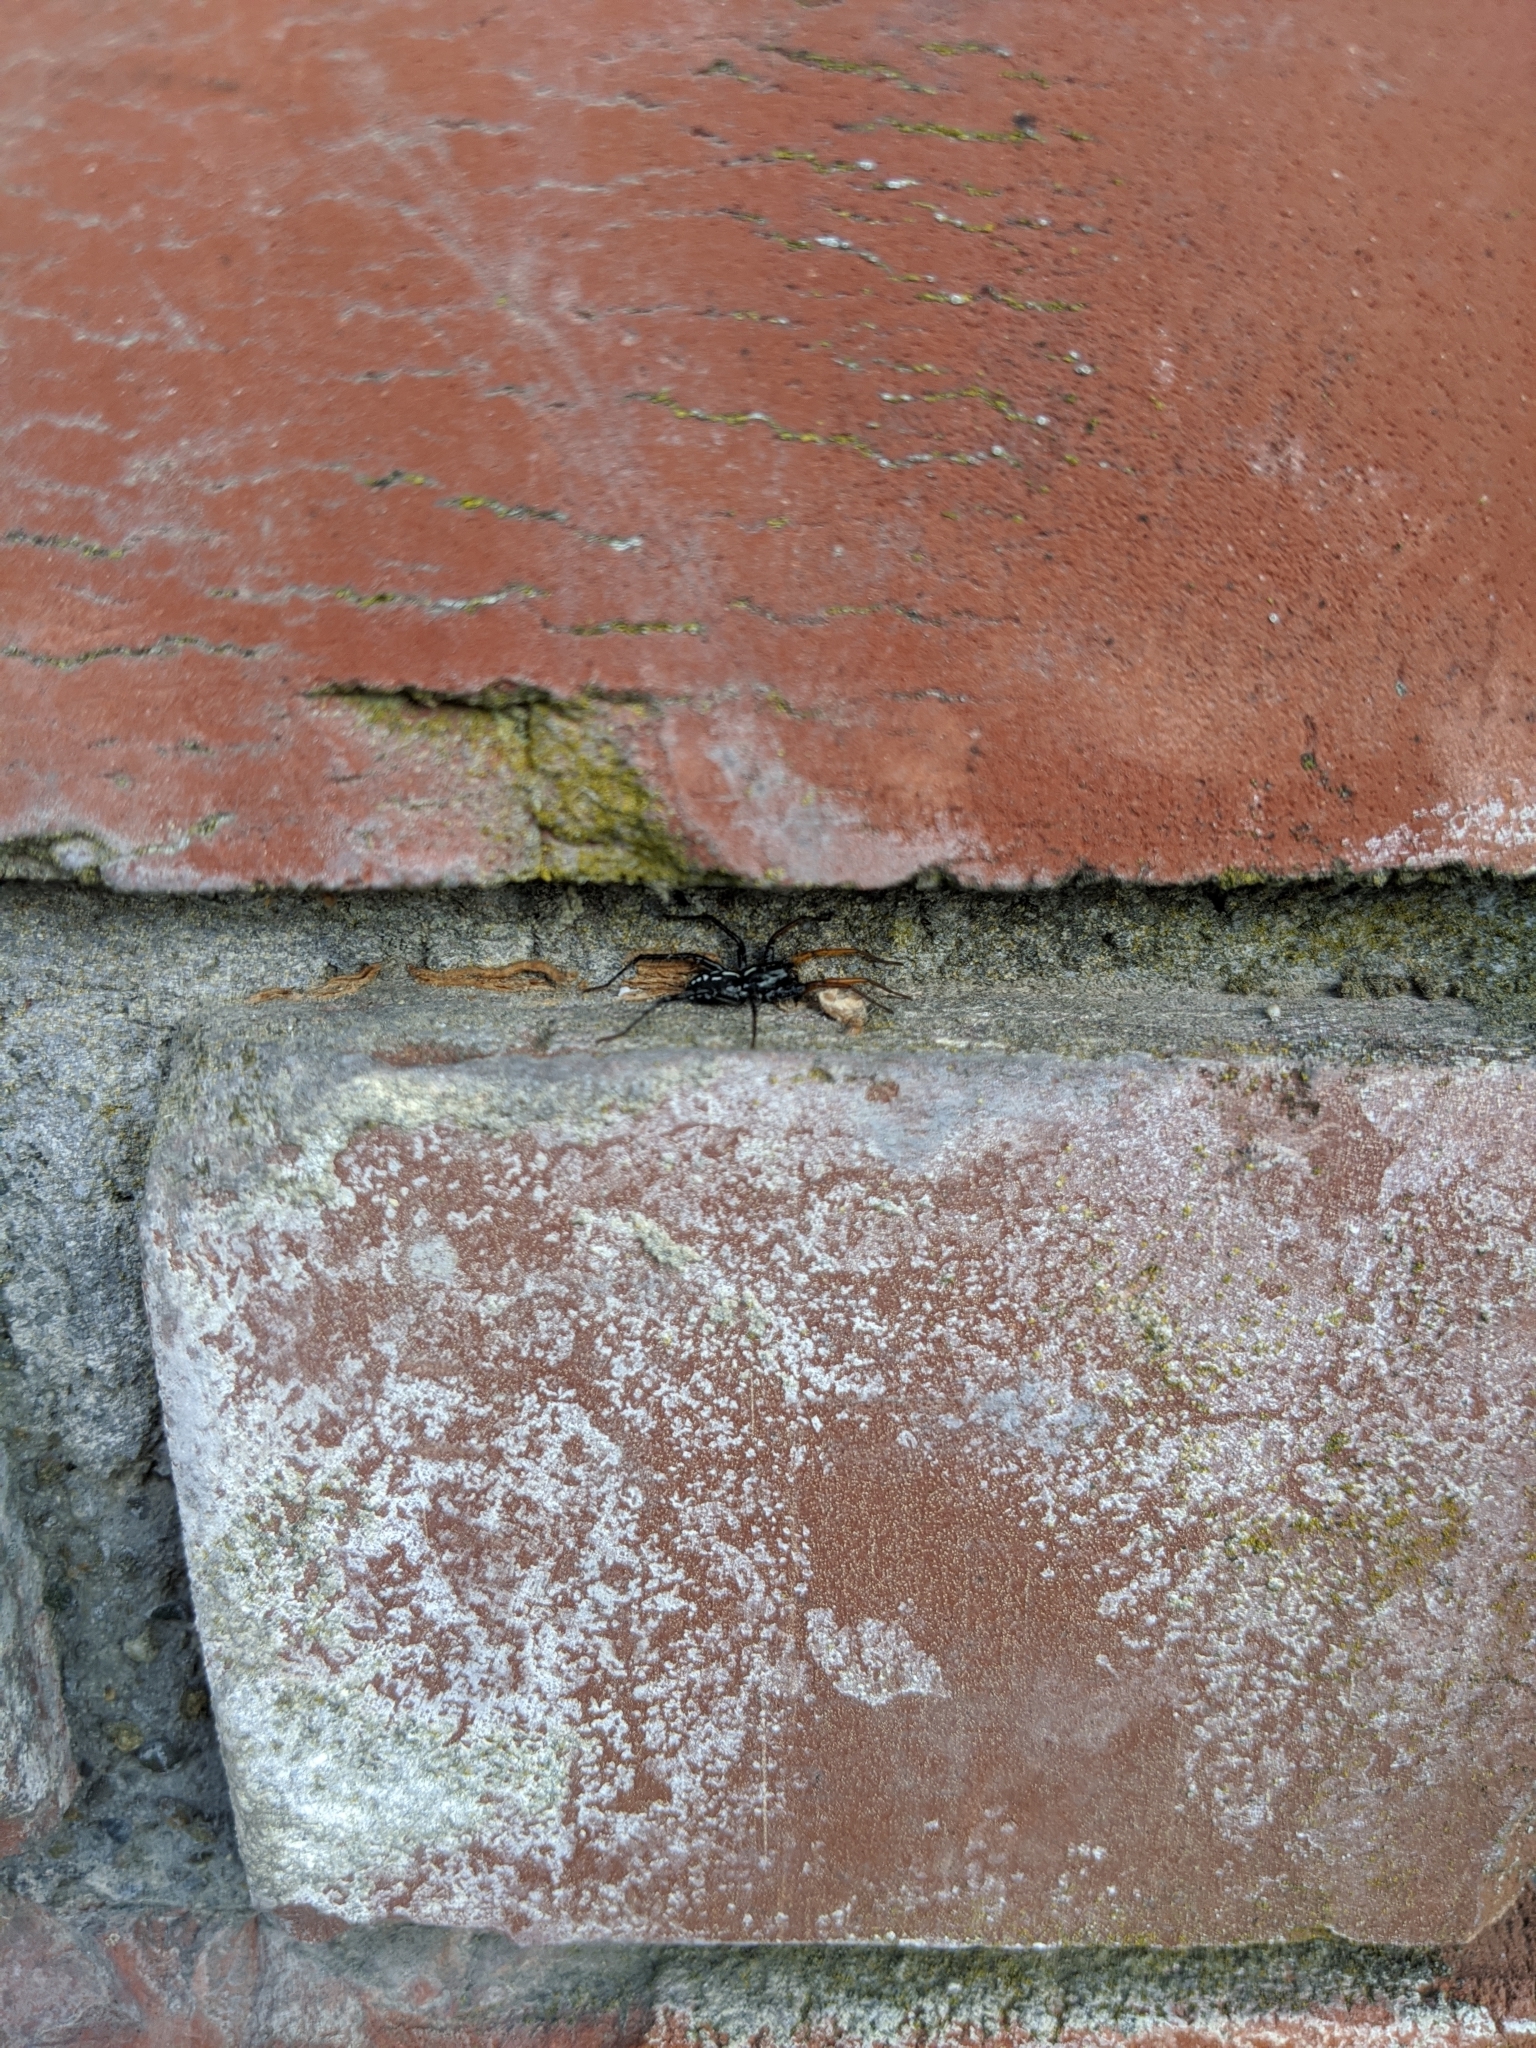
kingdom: Animalia
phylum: Arthropoda
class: Arachnida
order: Araneae
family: Corinnidae
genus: Nyssus
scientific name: Nyssus coloripes
